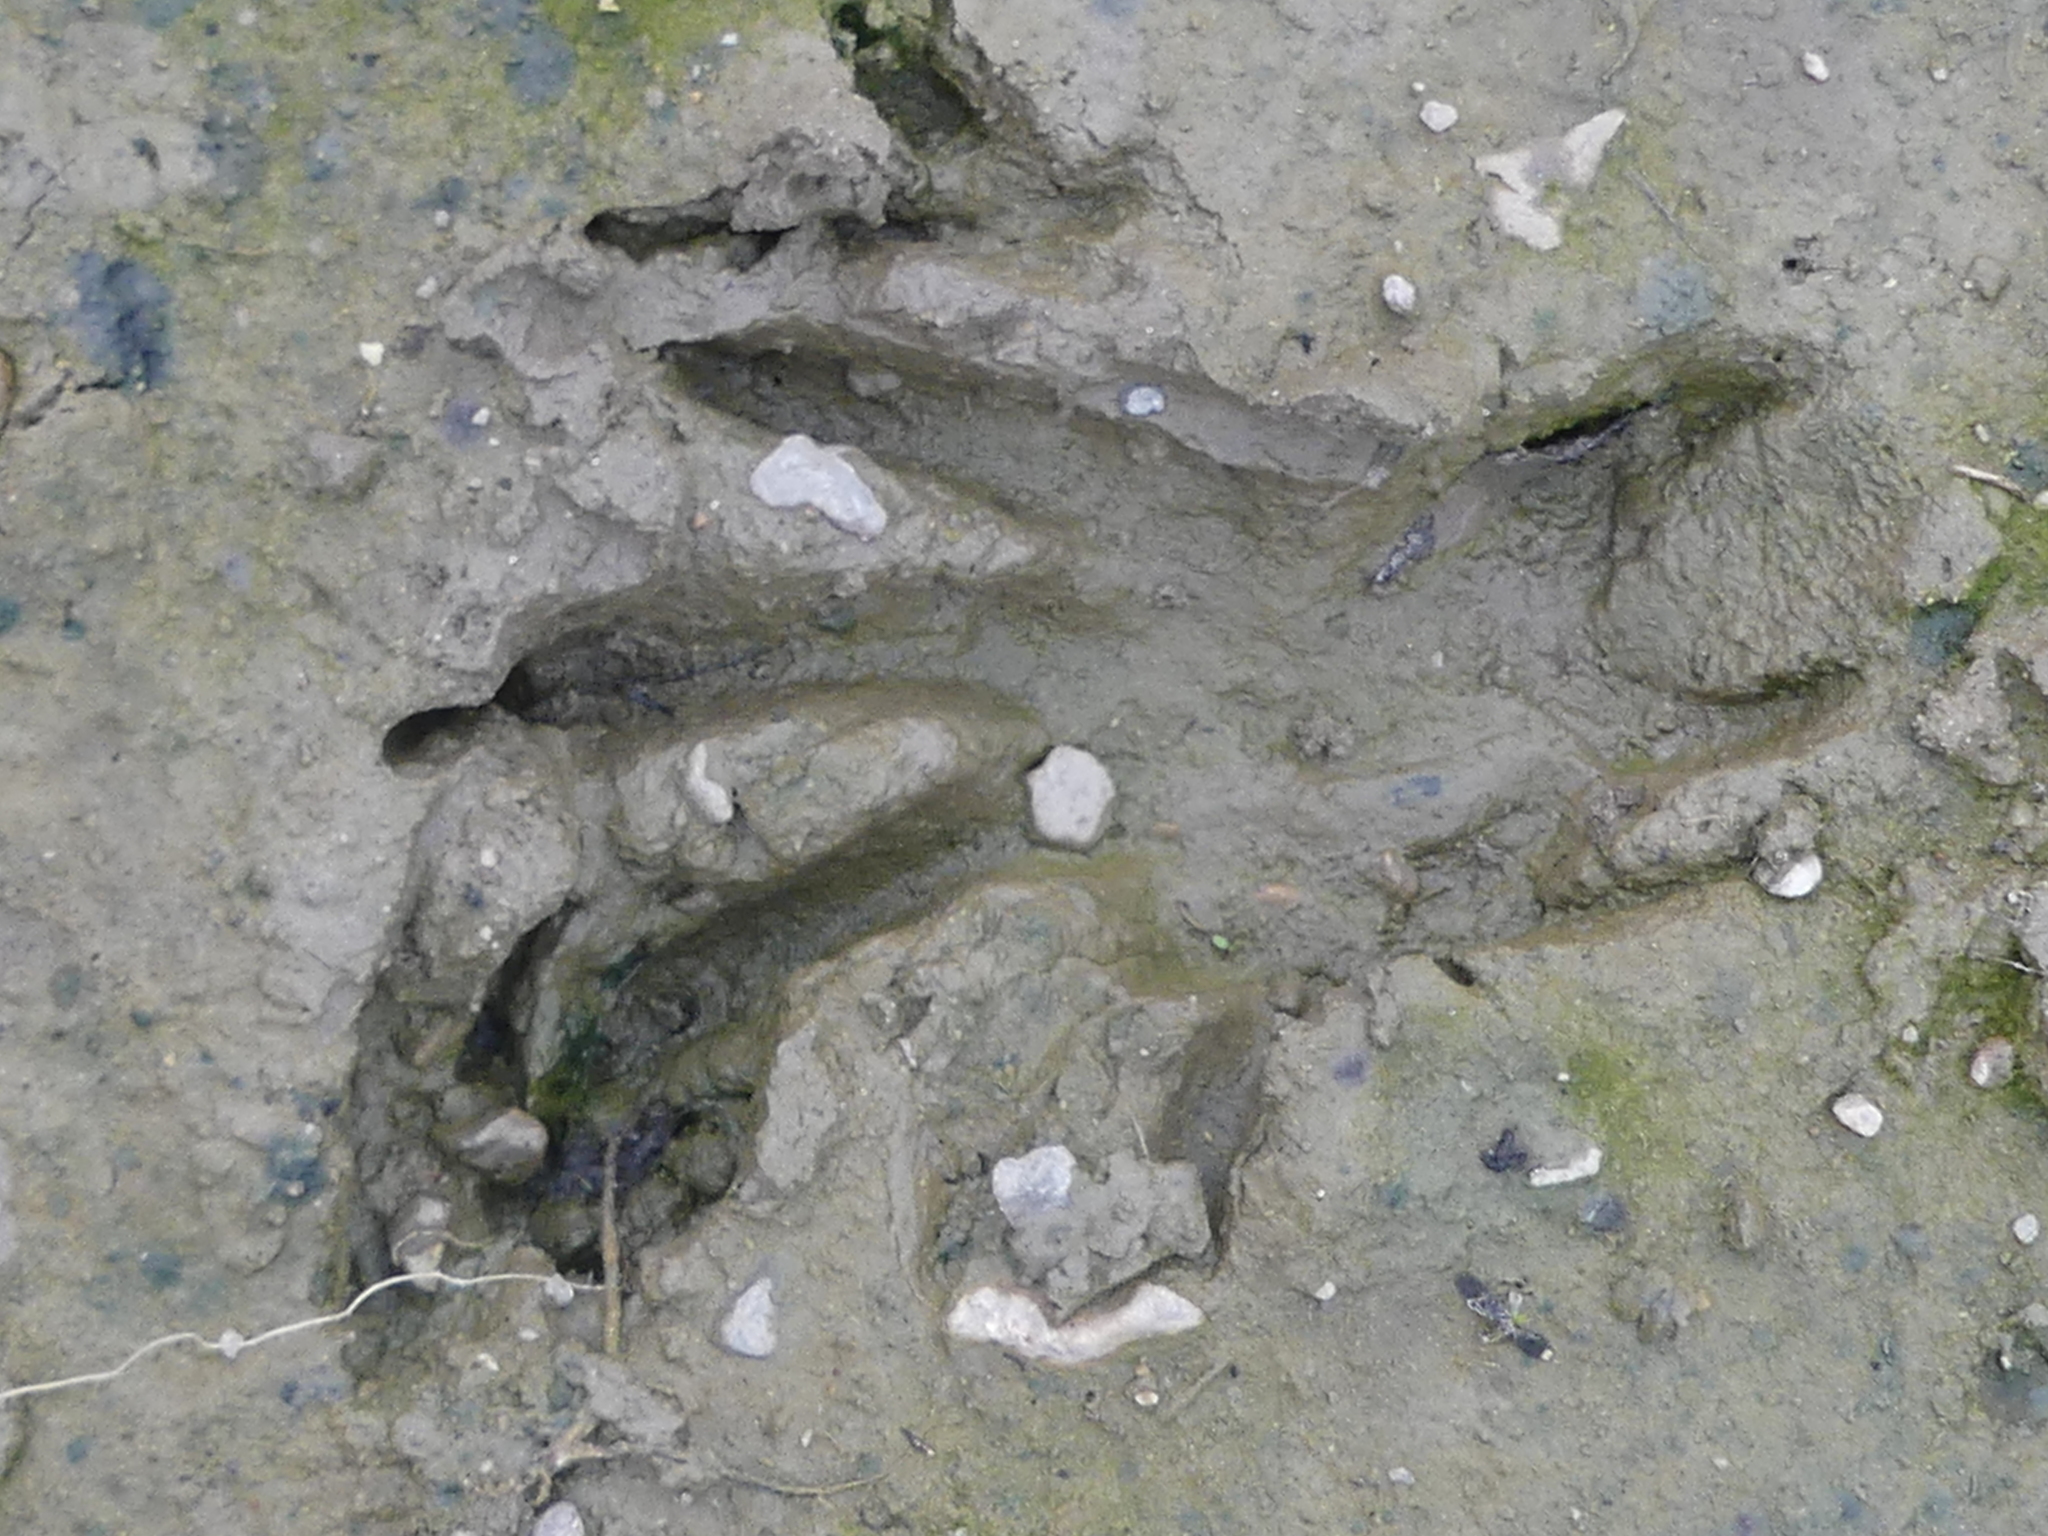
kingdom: Animalia
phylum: Chordata
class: Mammalia
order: Rodentia
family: Castoridae
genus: Castor
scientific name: Castor canadensis
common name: American beaver
